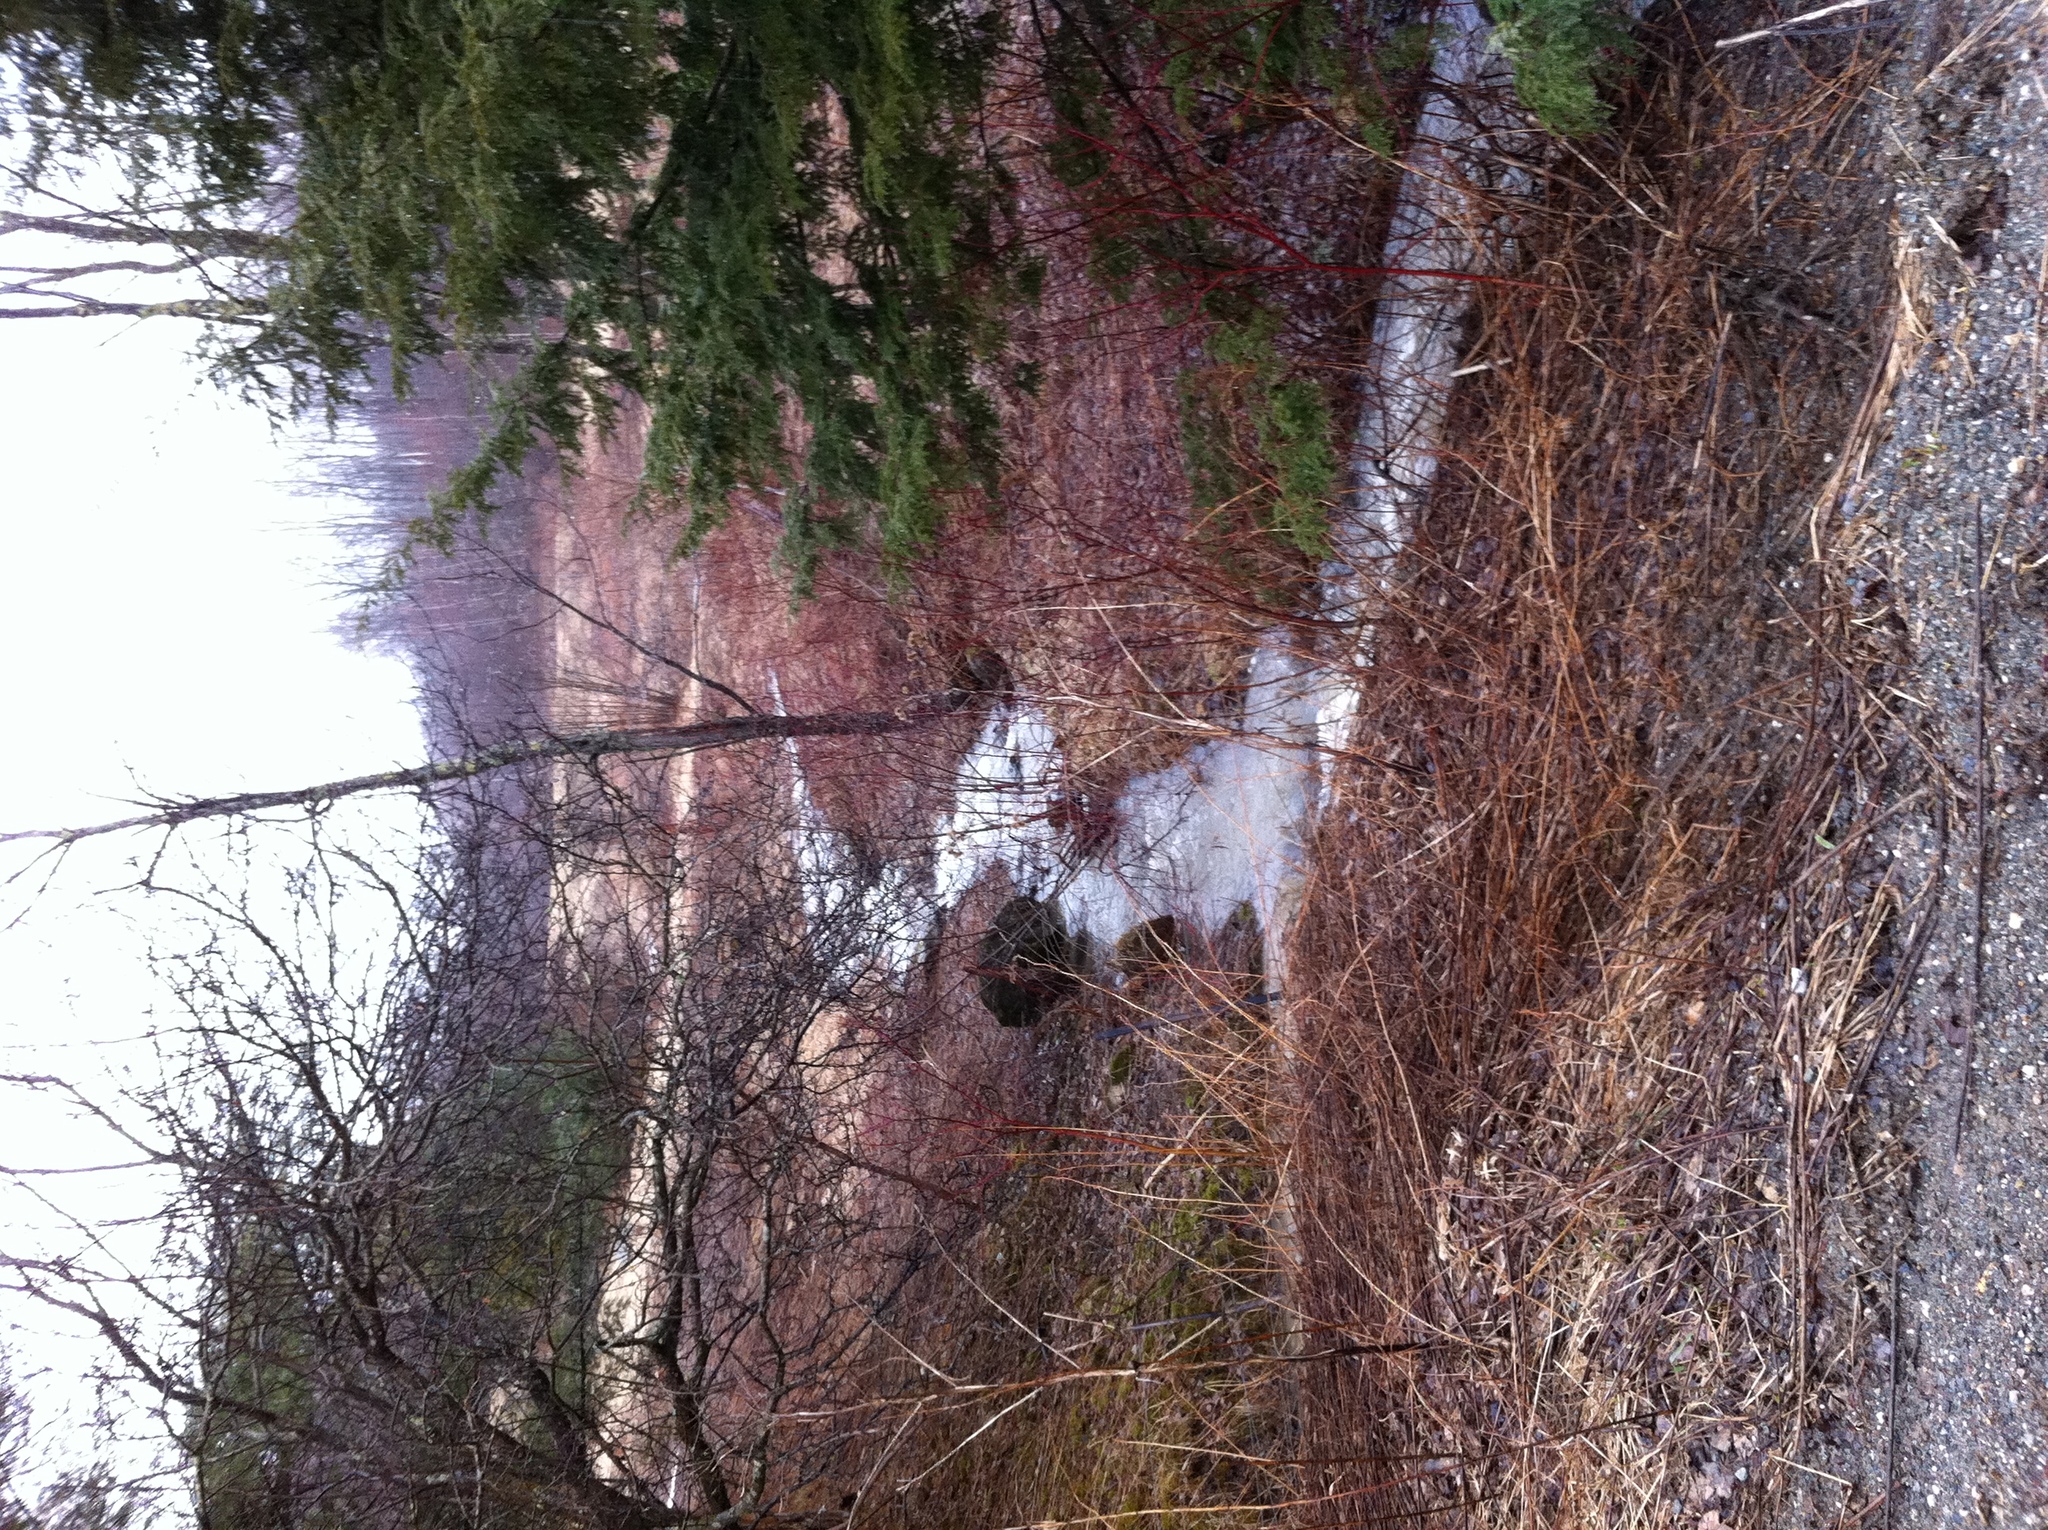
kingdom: Plantae
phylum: Tracheophyta
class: Pinopsida
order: Pinales
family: Pinaceae
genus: Tsuga
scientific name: Tsuga canadensis
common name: Eastern hemlock
